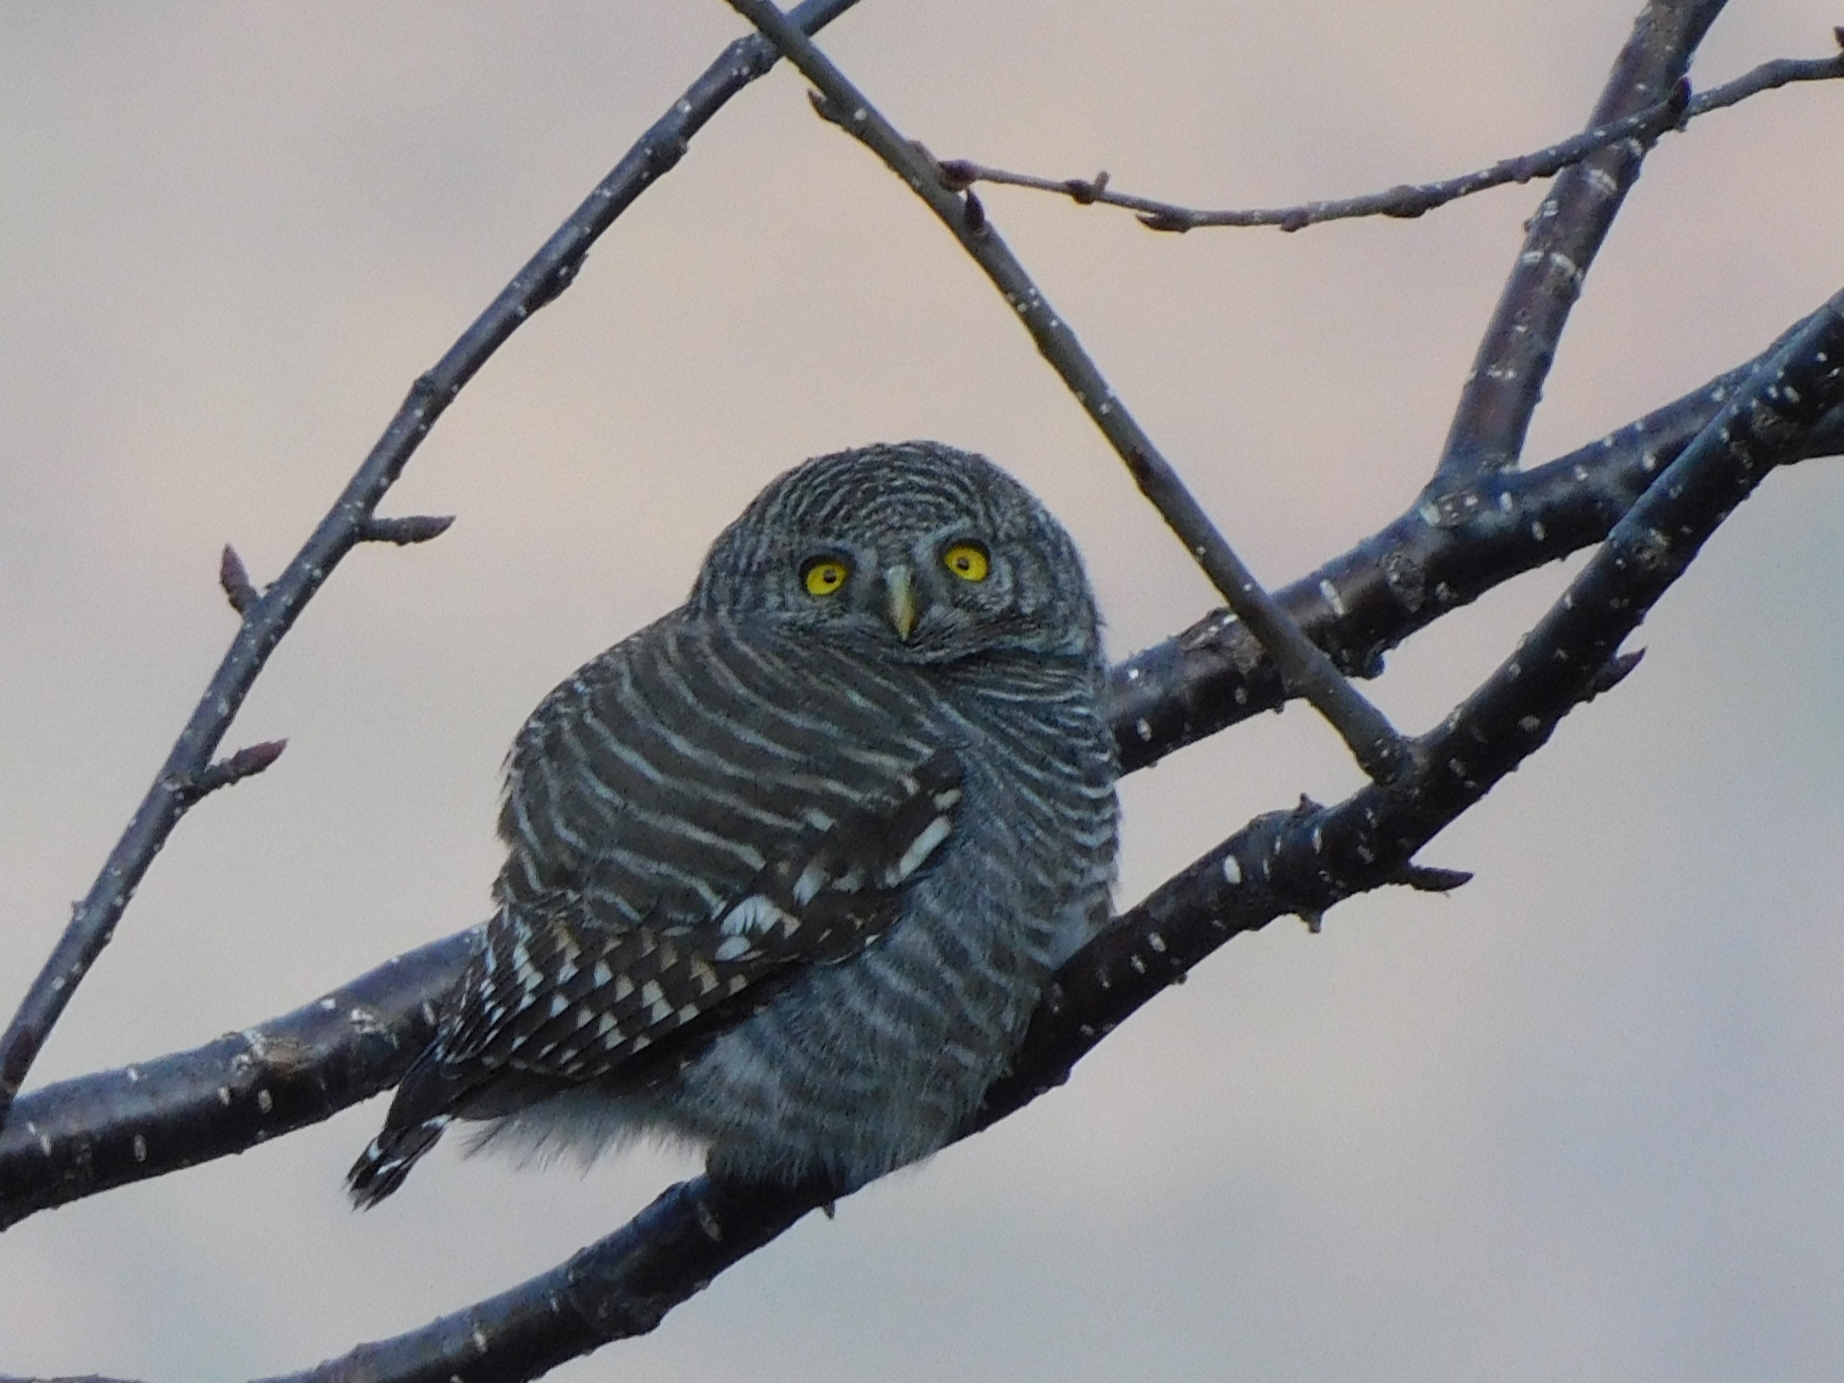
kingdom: Animalia
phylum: Chordata
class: Aves
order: Strigiformes
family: Strigidae
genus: Glaucidium
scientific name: Glaucidium cuculoides
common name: Asian barred owlet
